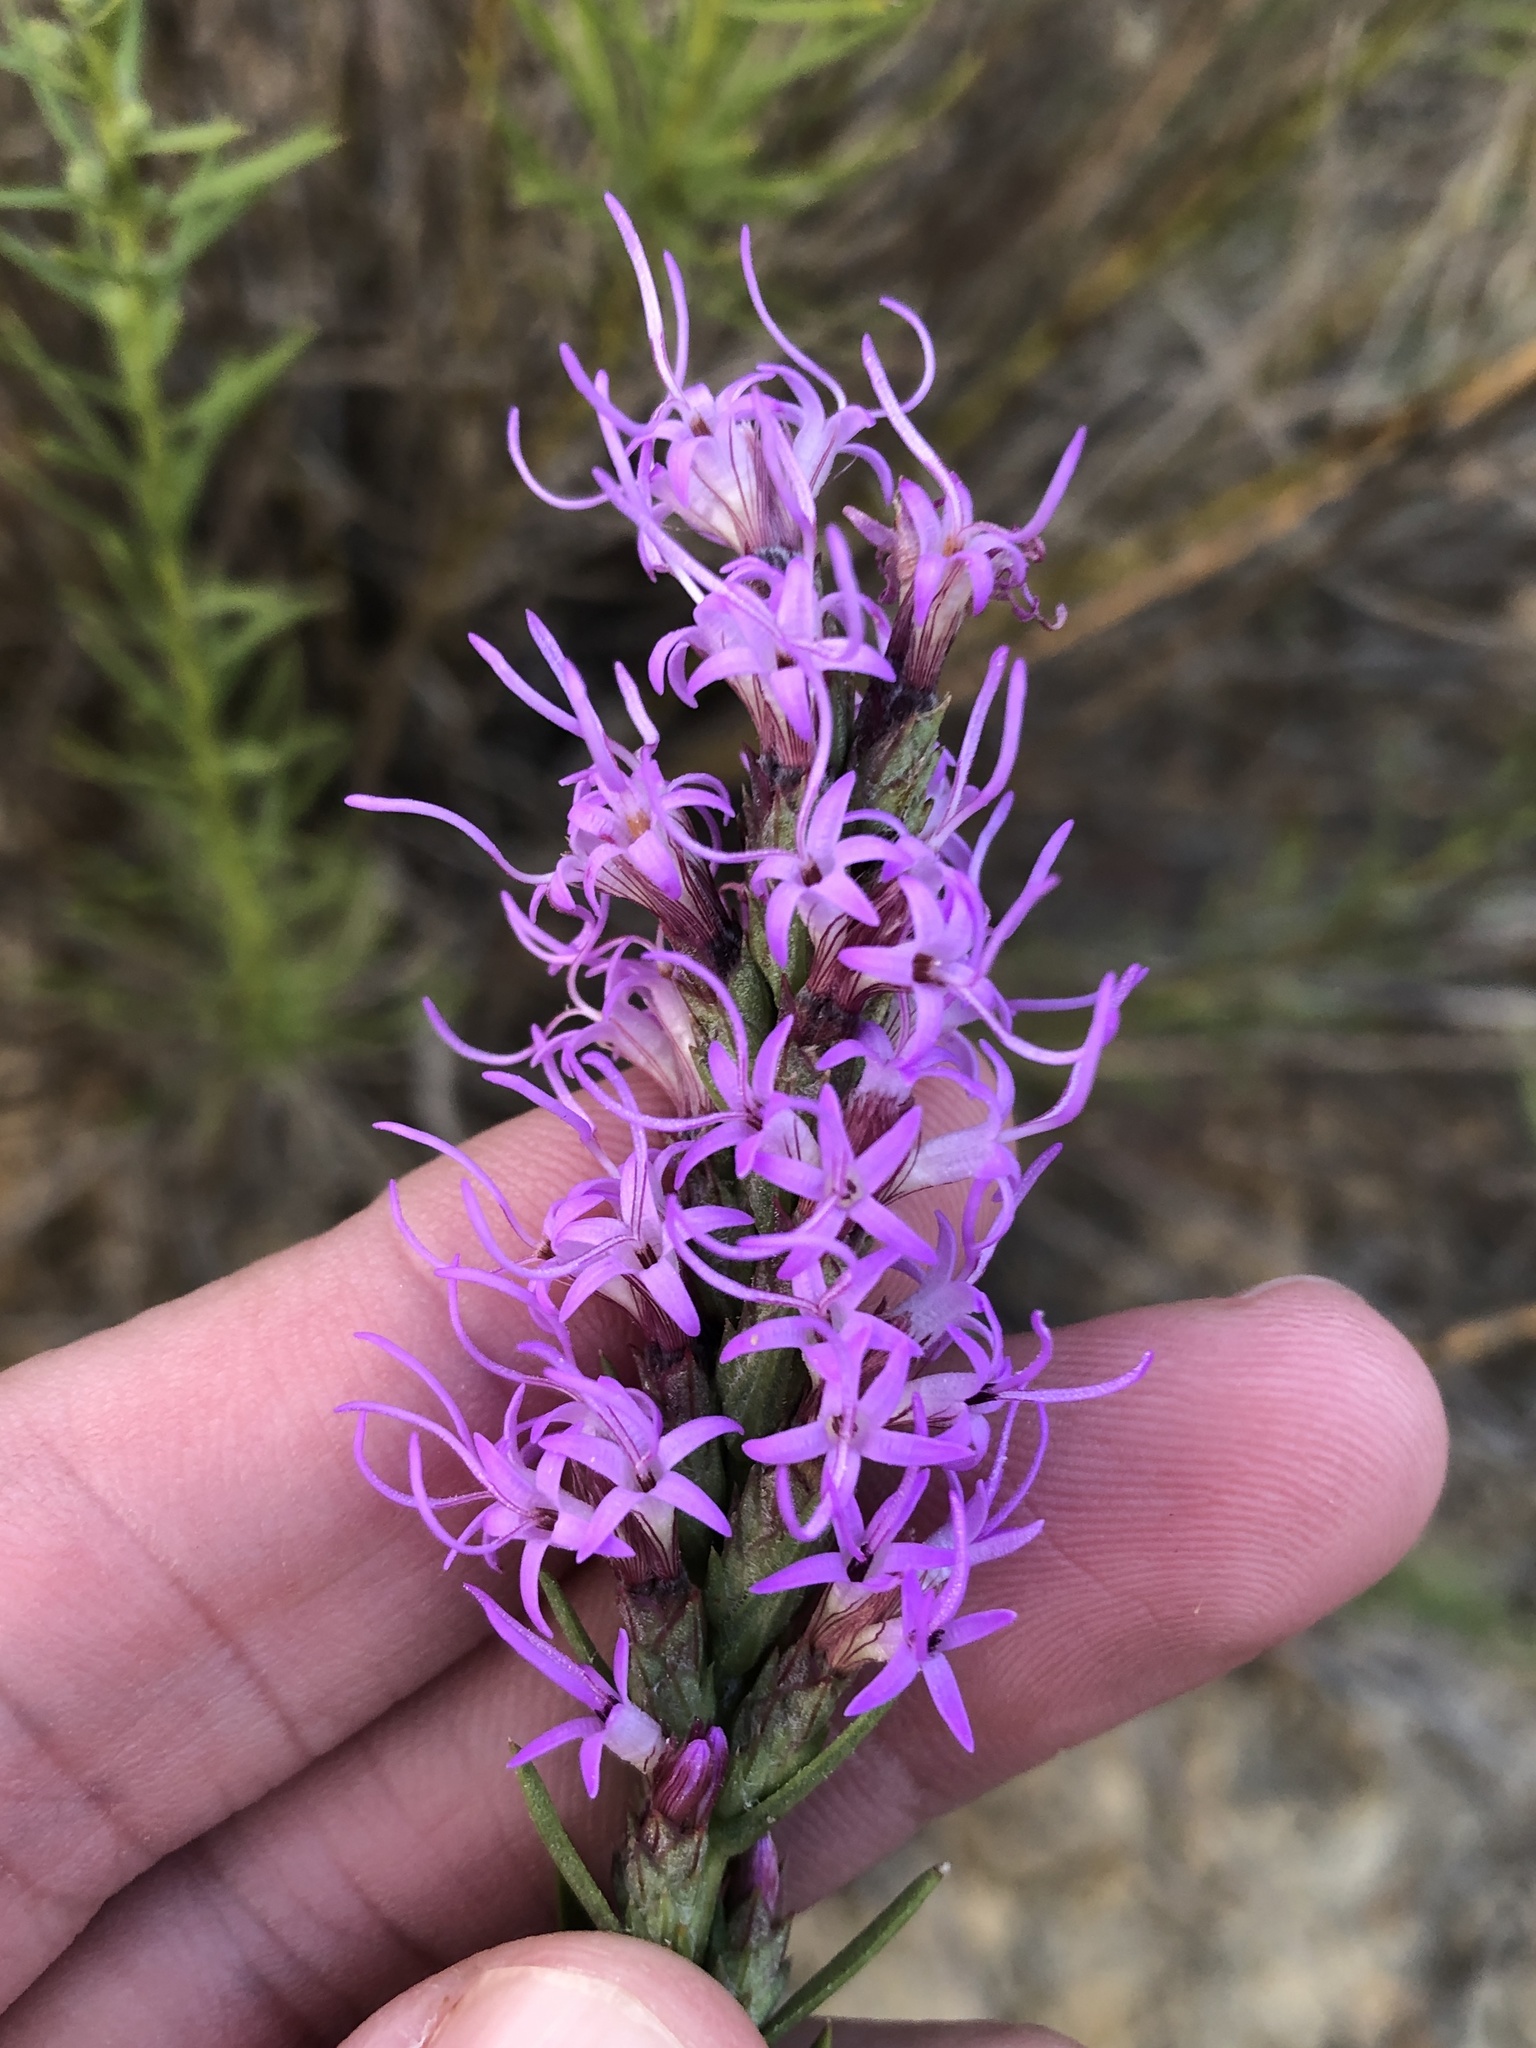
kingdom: Plantae
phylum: Tracheophyta
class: Magnoliopsida
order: Asterales
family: Asteraceae
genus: Liatris
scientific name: Liatris punctata
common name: Dotted gayfeather
